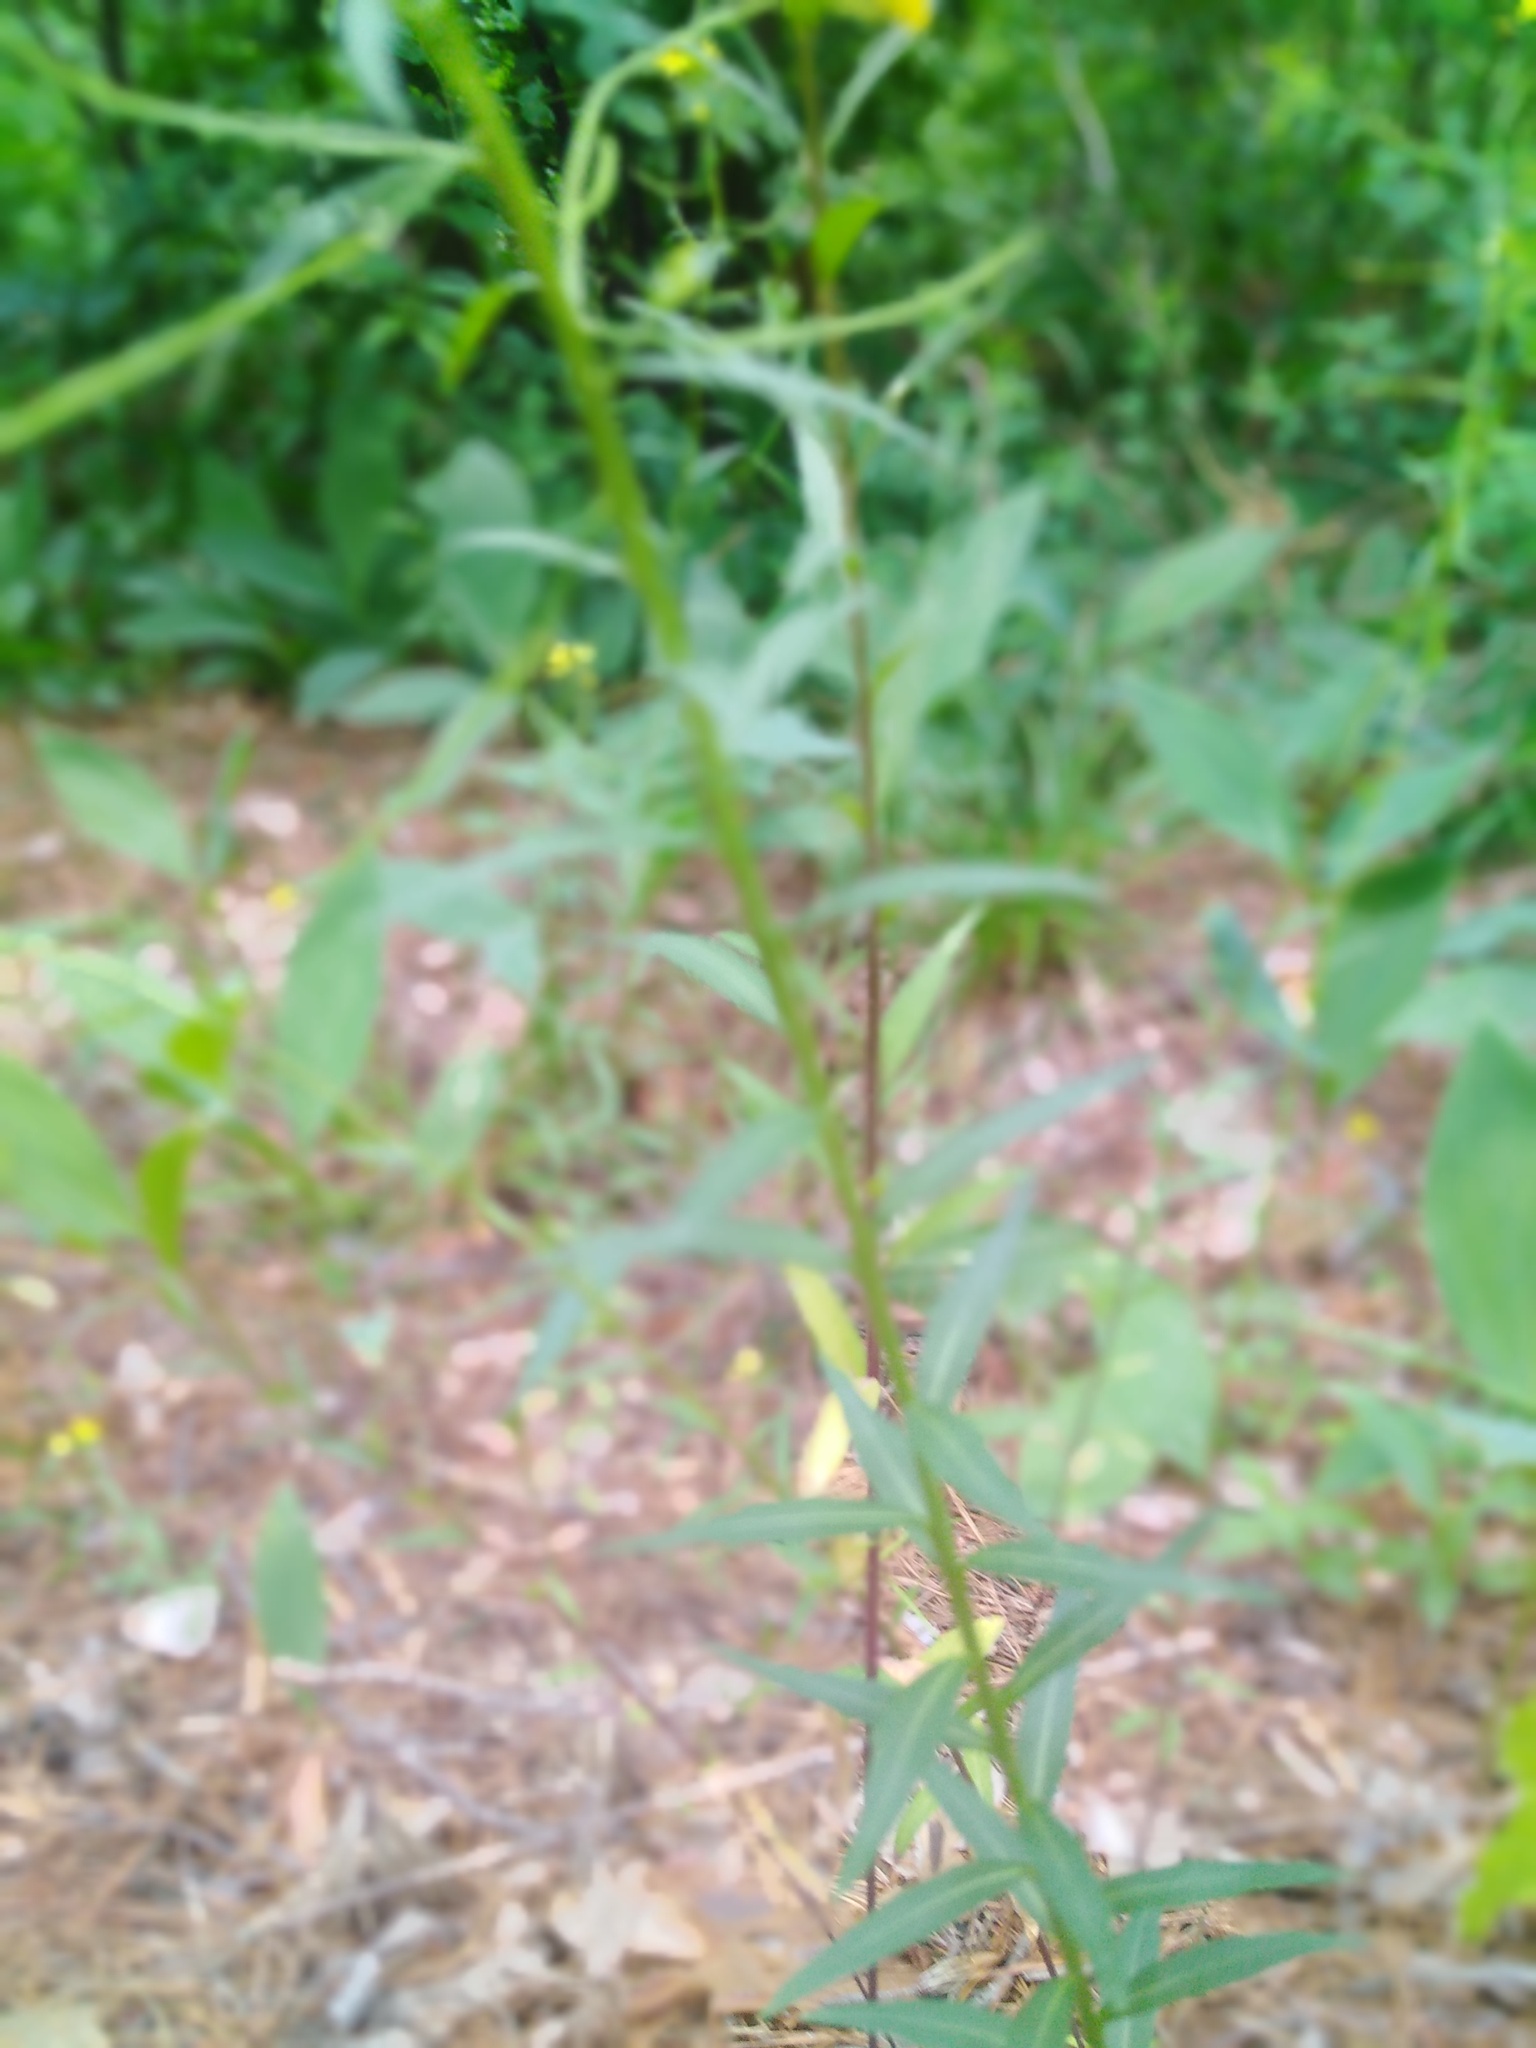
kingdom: Plantae
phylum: Tracheophyta
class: Magnoliopsida
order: Brassicales
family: Brassicaceae
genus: Erysimum
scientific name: Erysimum cheiranthoides
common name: Treacle mustard
